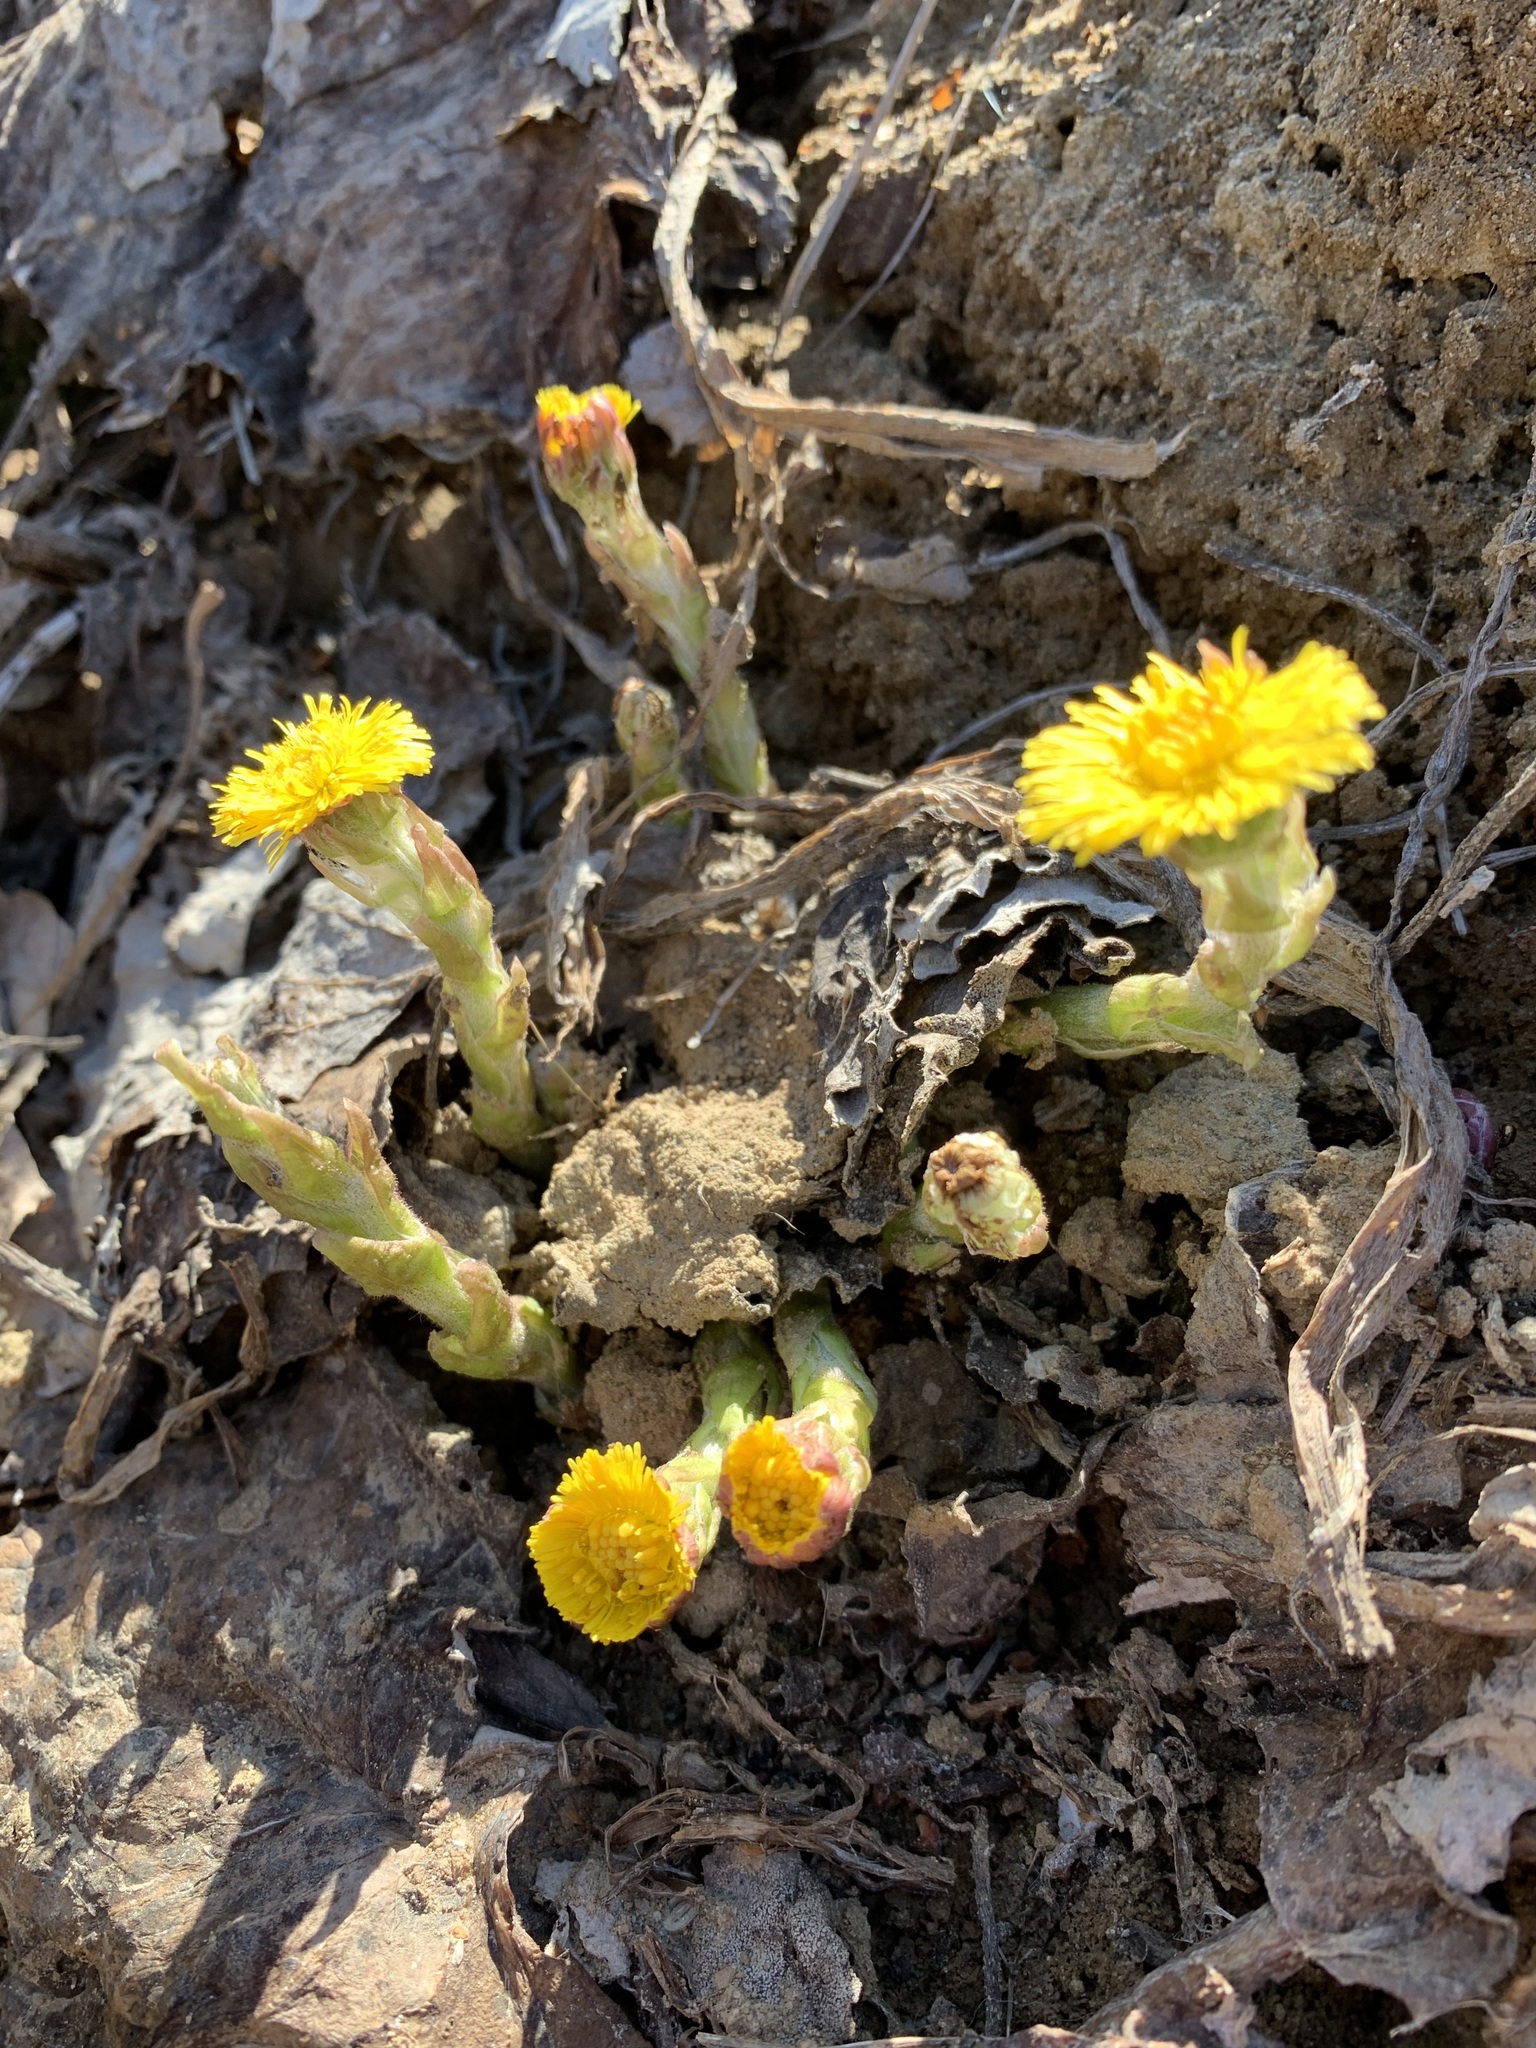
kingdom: Plantae
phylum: Tracheophyta
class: Magnoliopsida
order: Asterales
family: Asteraceae
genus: Tussilago
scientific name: Tussilago farfara
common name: Coltsfoot
